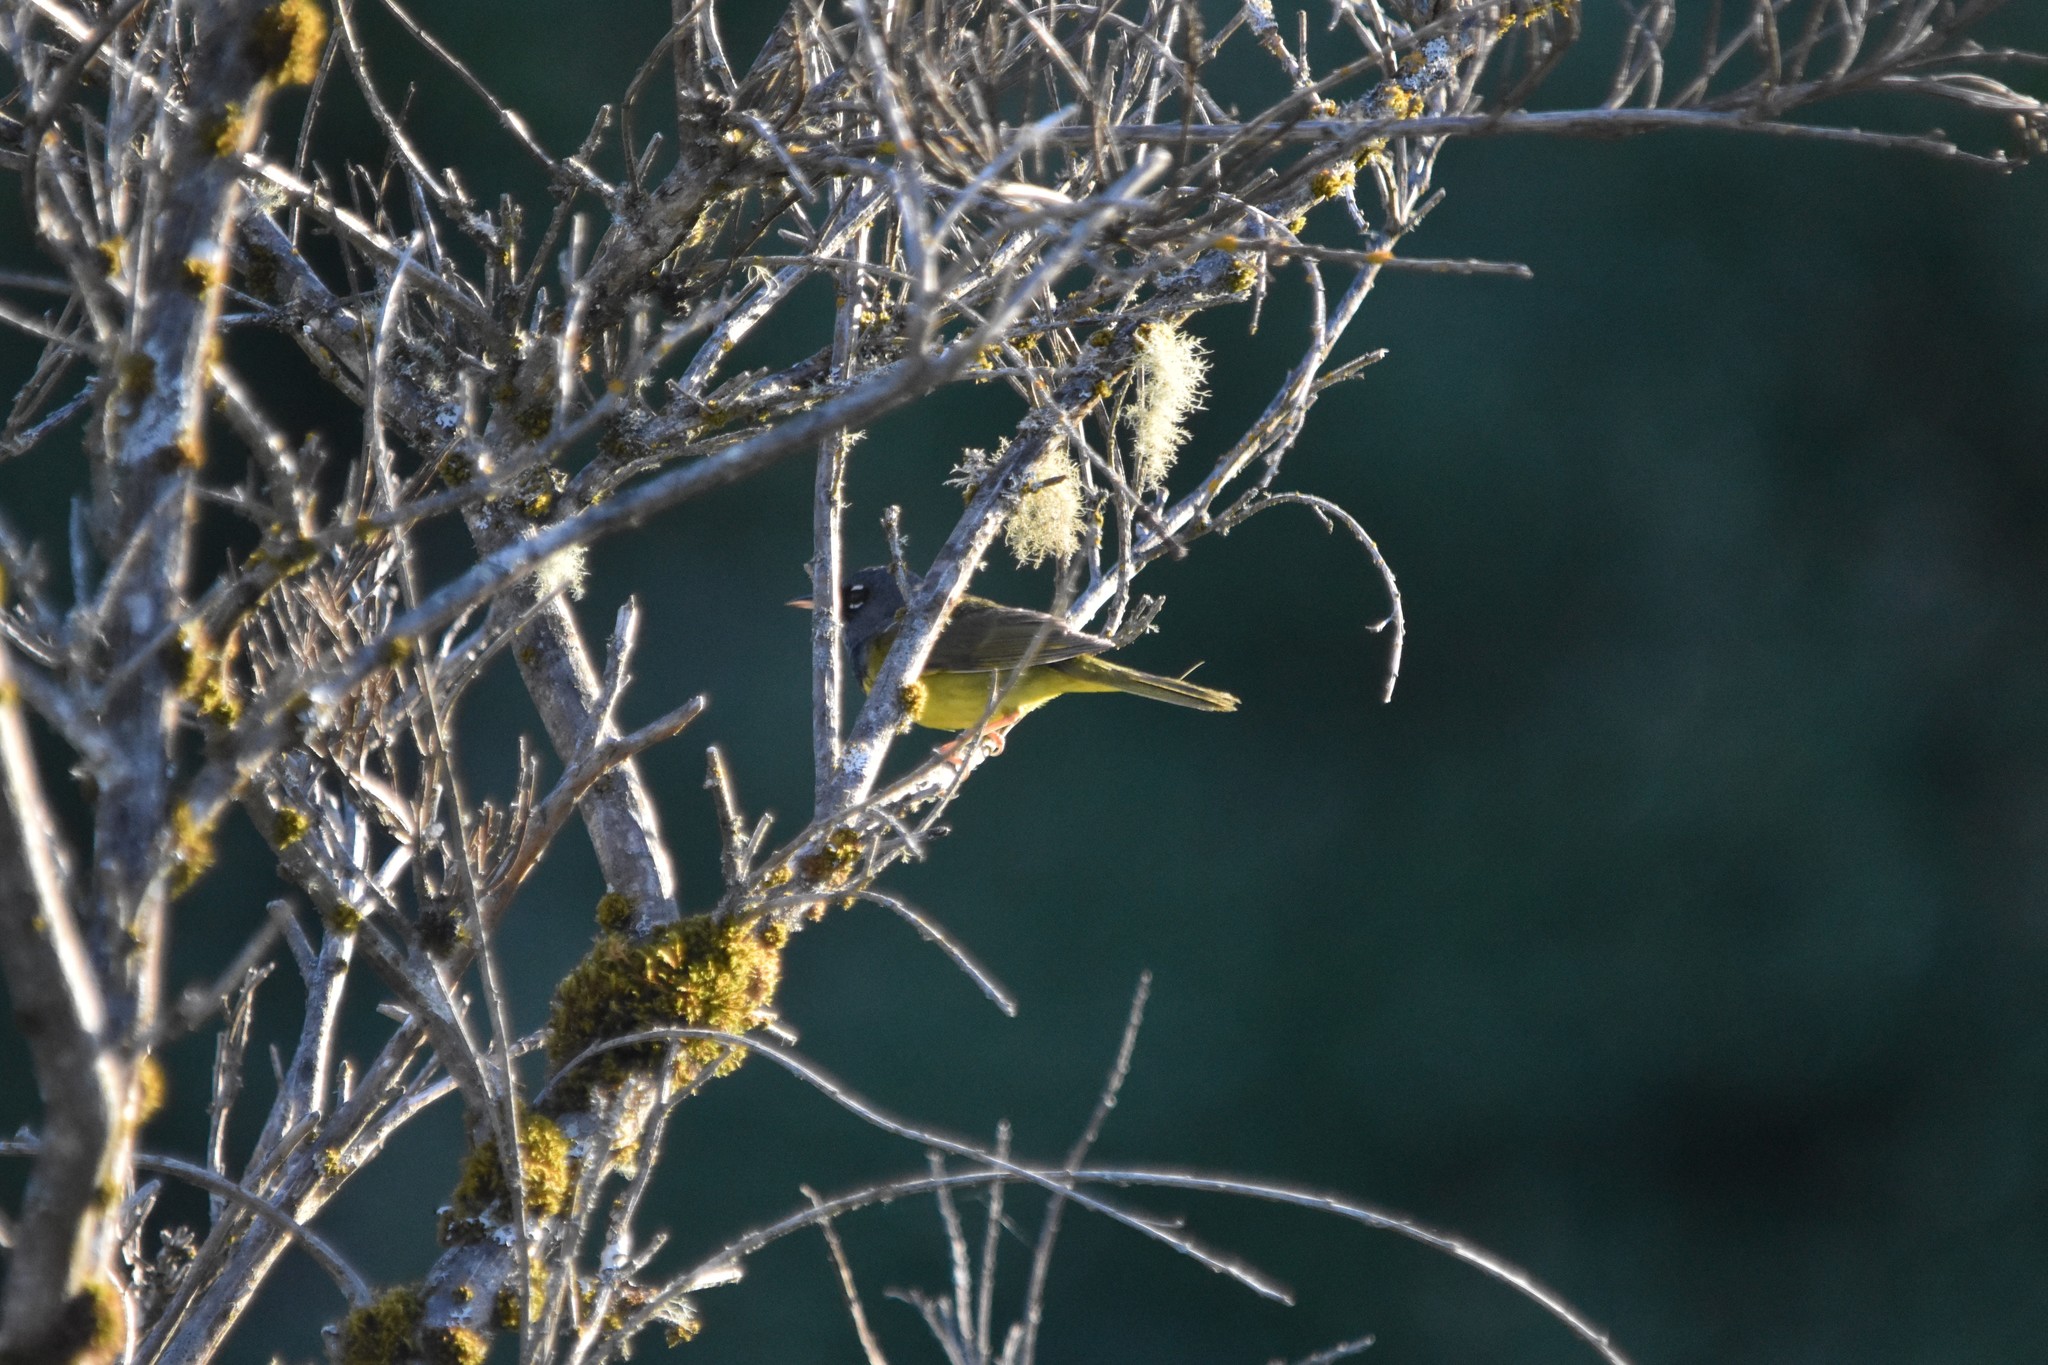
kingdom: Animalia
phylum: Chordata
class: Aves
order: Passeriformes
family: Parulidae
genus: Geothlypis
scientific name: Geothlypis tolmiei
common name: Macgillivray's warbler
